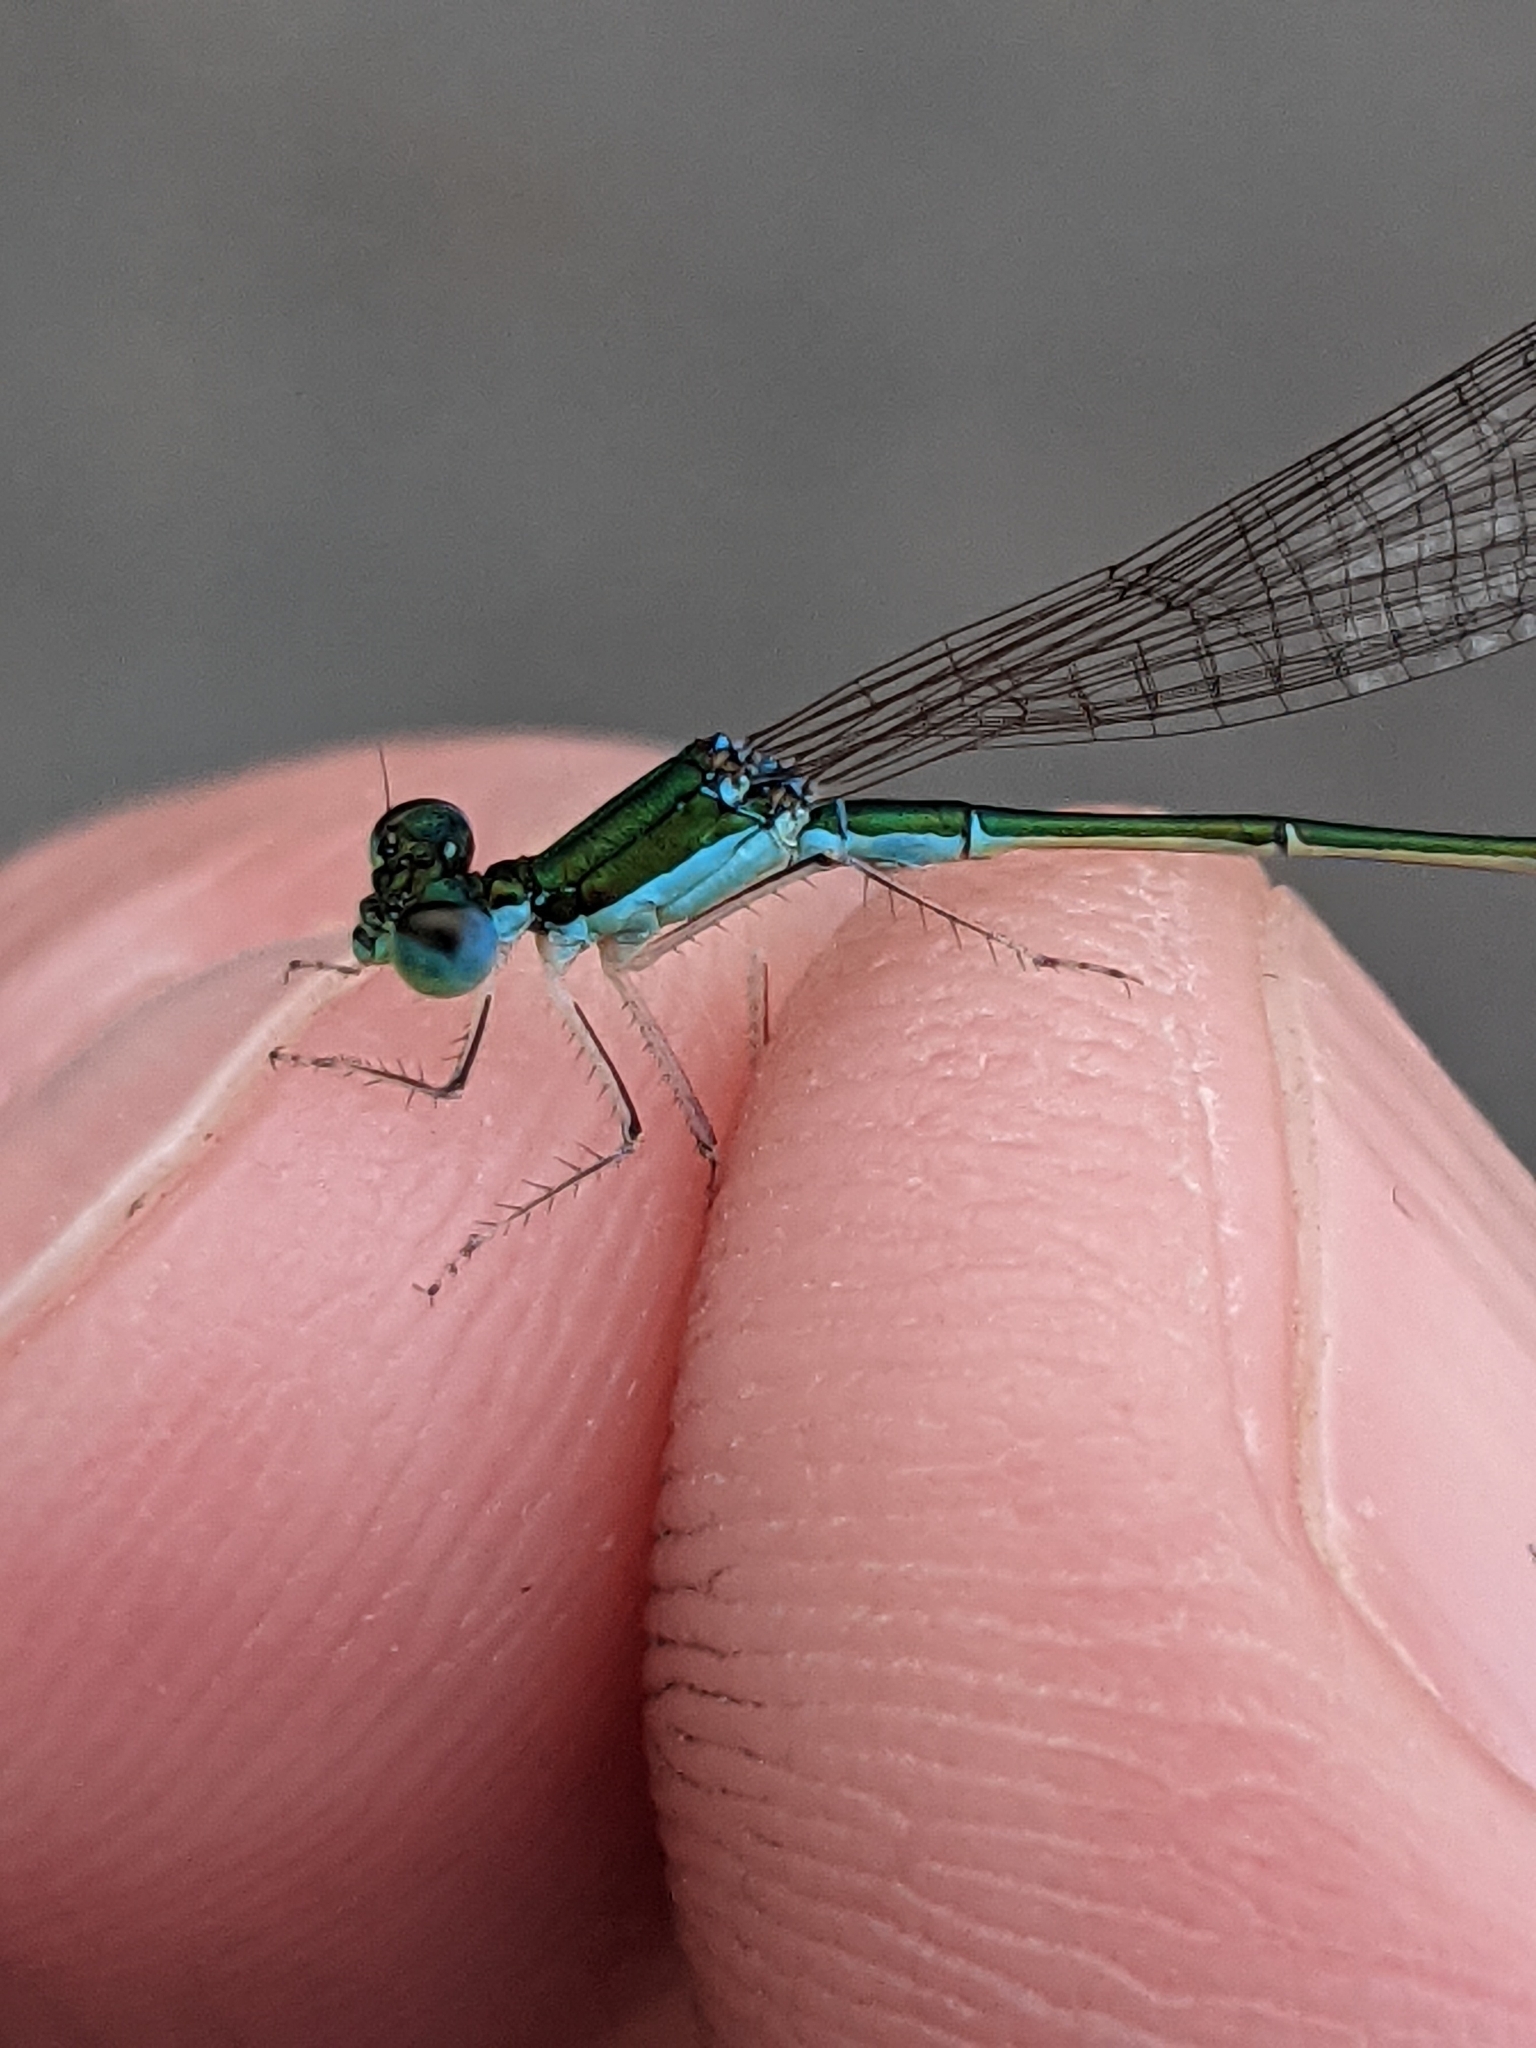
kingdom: Animalia
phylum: Arthropoda
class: Insecta
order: Odonata
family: Coenagrionidae
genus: Nehalennia
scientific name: Nehalennia irene
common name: Sedge sprite
